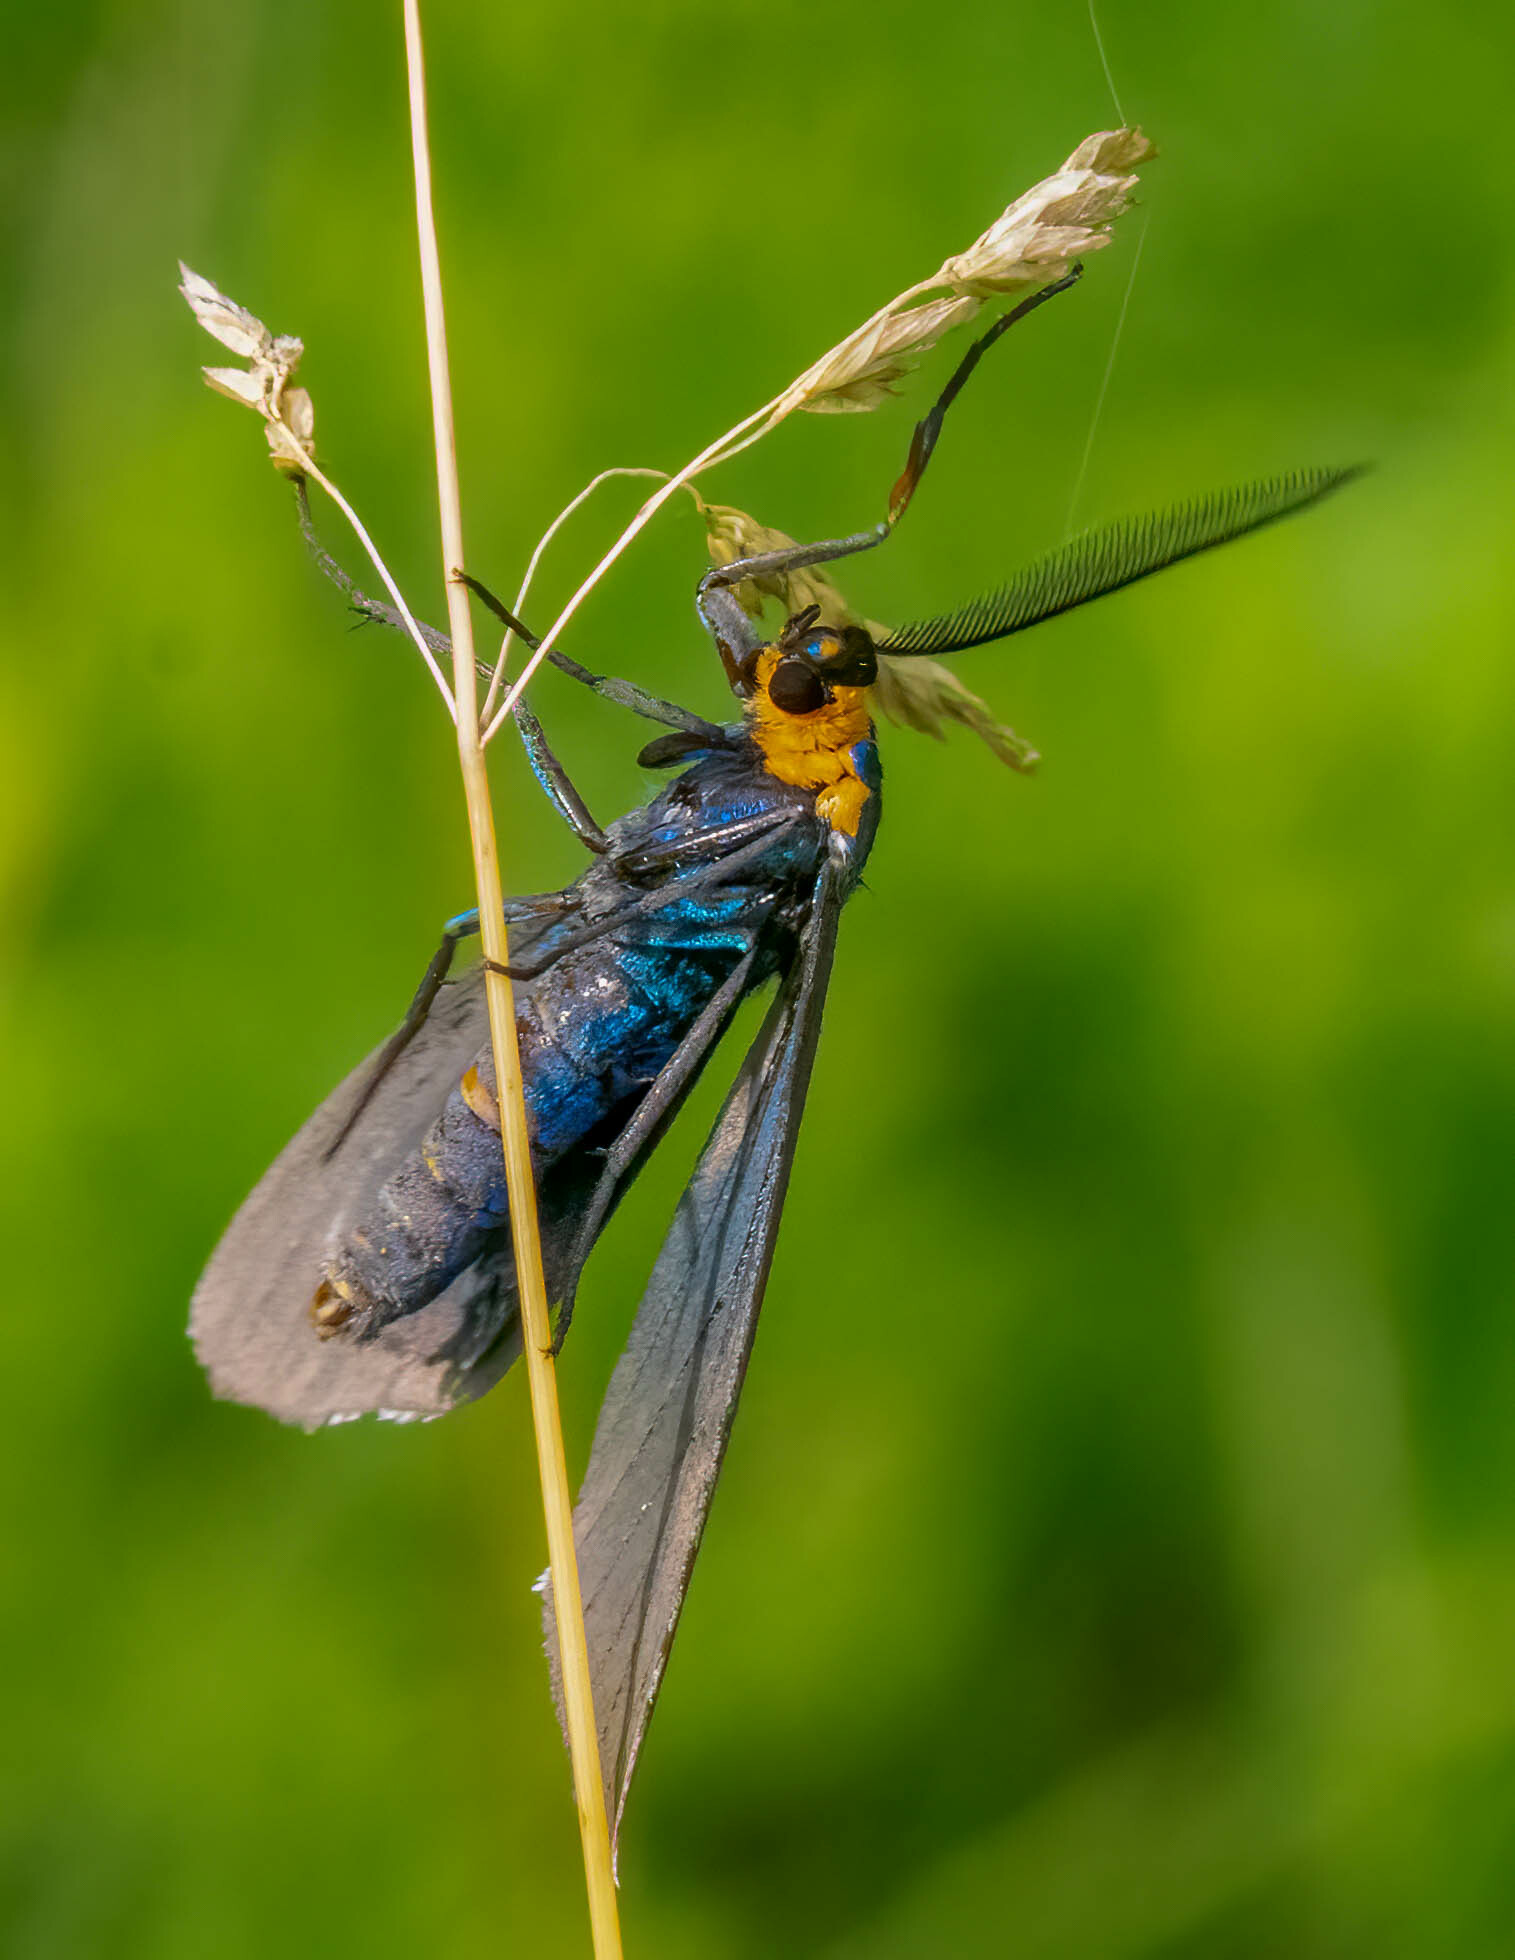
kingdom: Animalia
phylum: Arthropoda
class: Insecta
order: Lepidoptera
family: Erebidae
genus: Ctenucha
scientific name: Ctenucha virginica
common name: Virginia ctenucha moth
